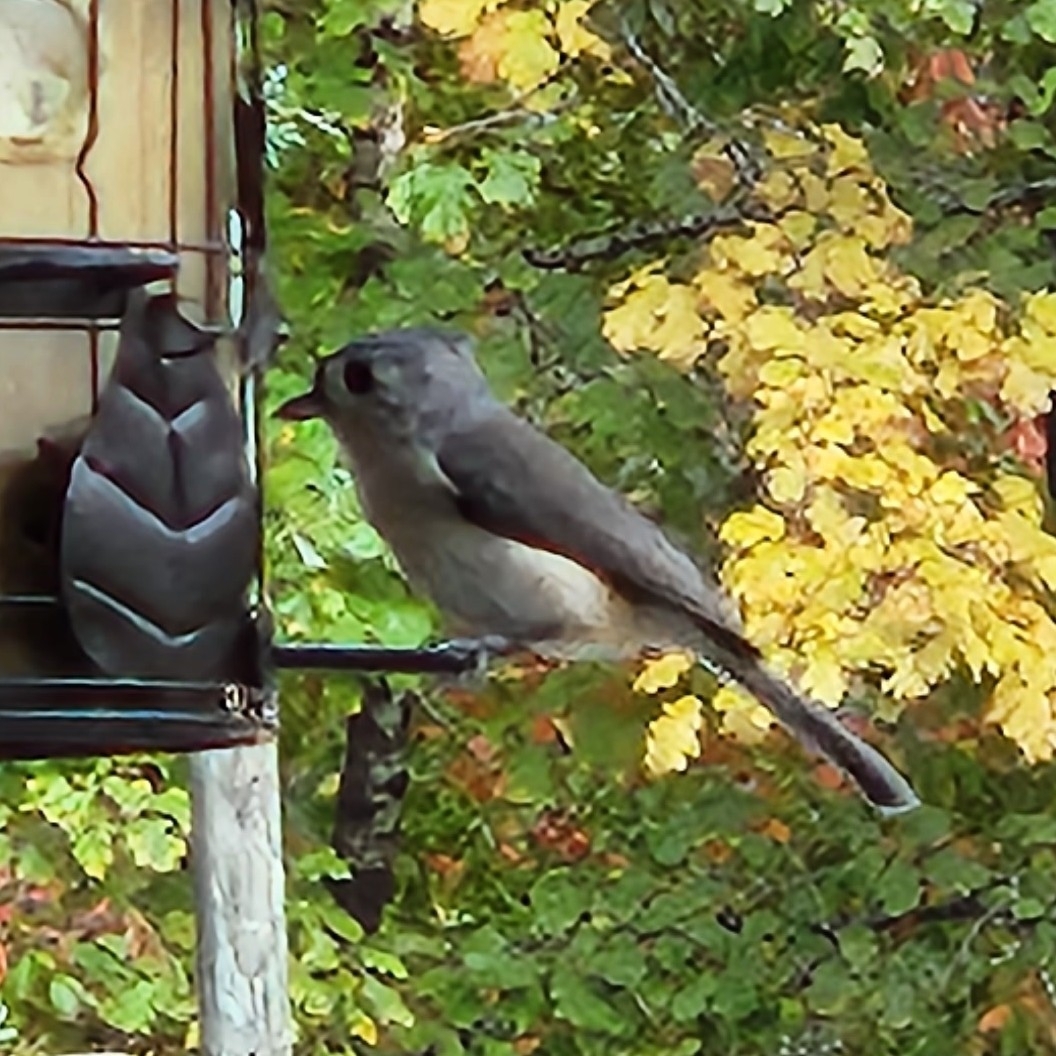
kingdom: Animalia
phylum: Chordata
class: Aves
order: Passeriformes
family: Paridae
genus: Baeolophus
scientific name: Baeolophus bicolor
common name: Tufted titmouse
